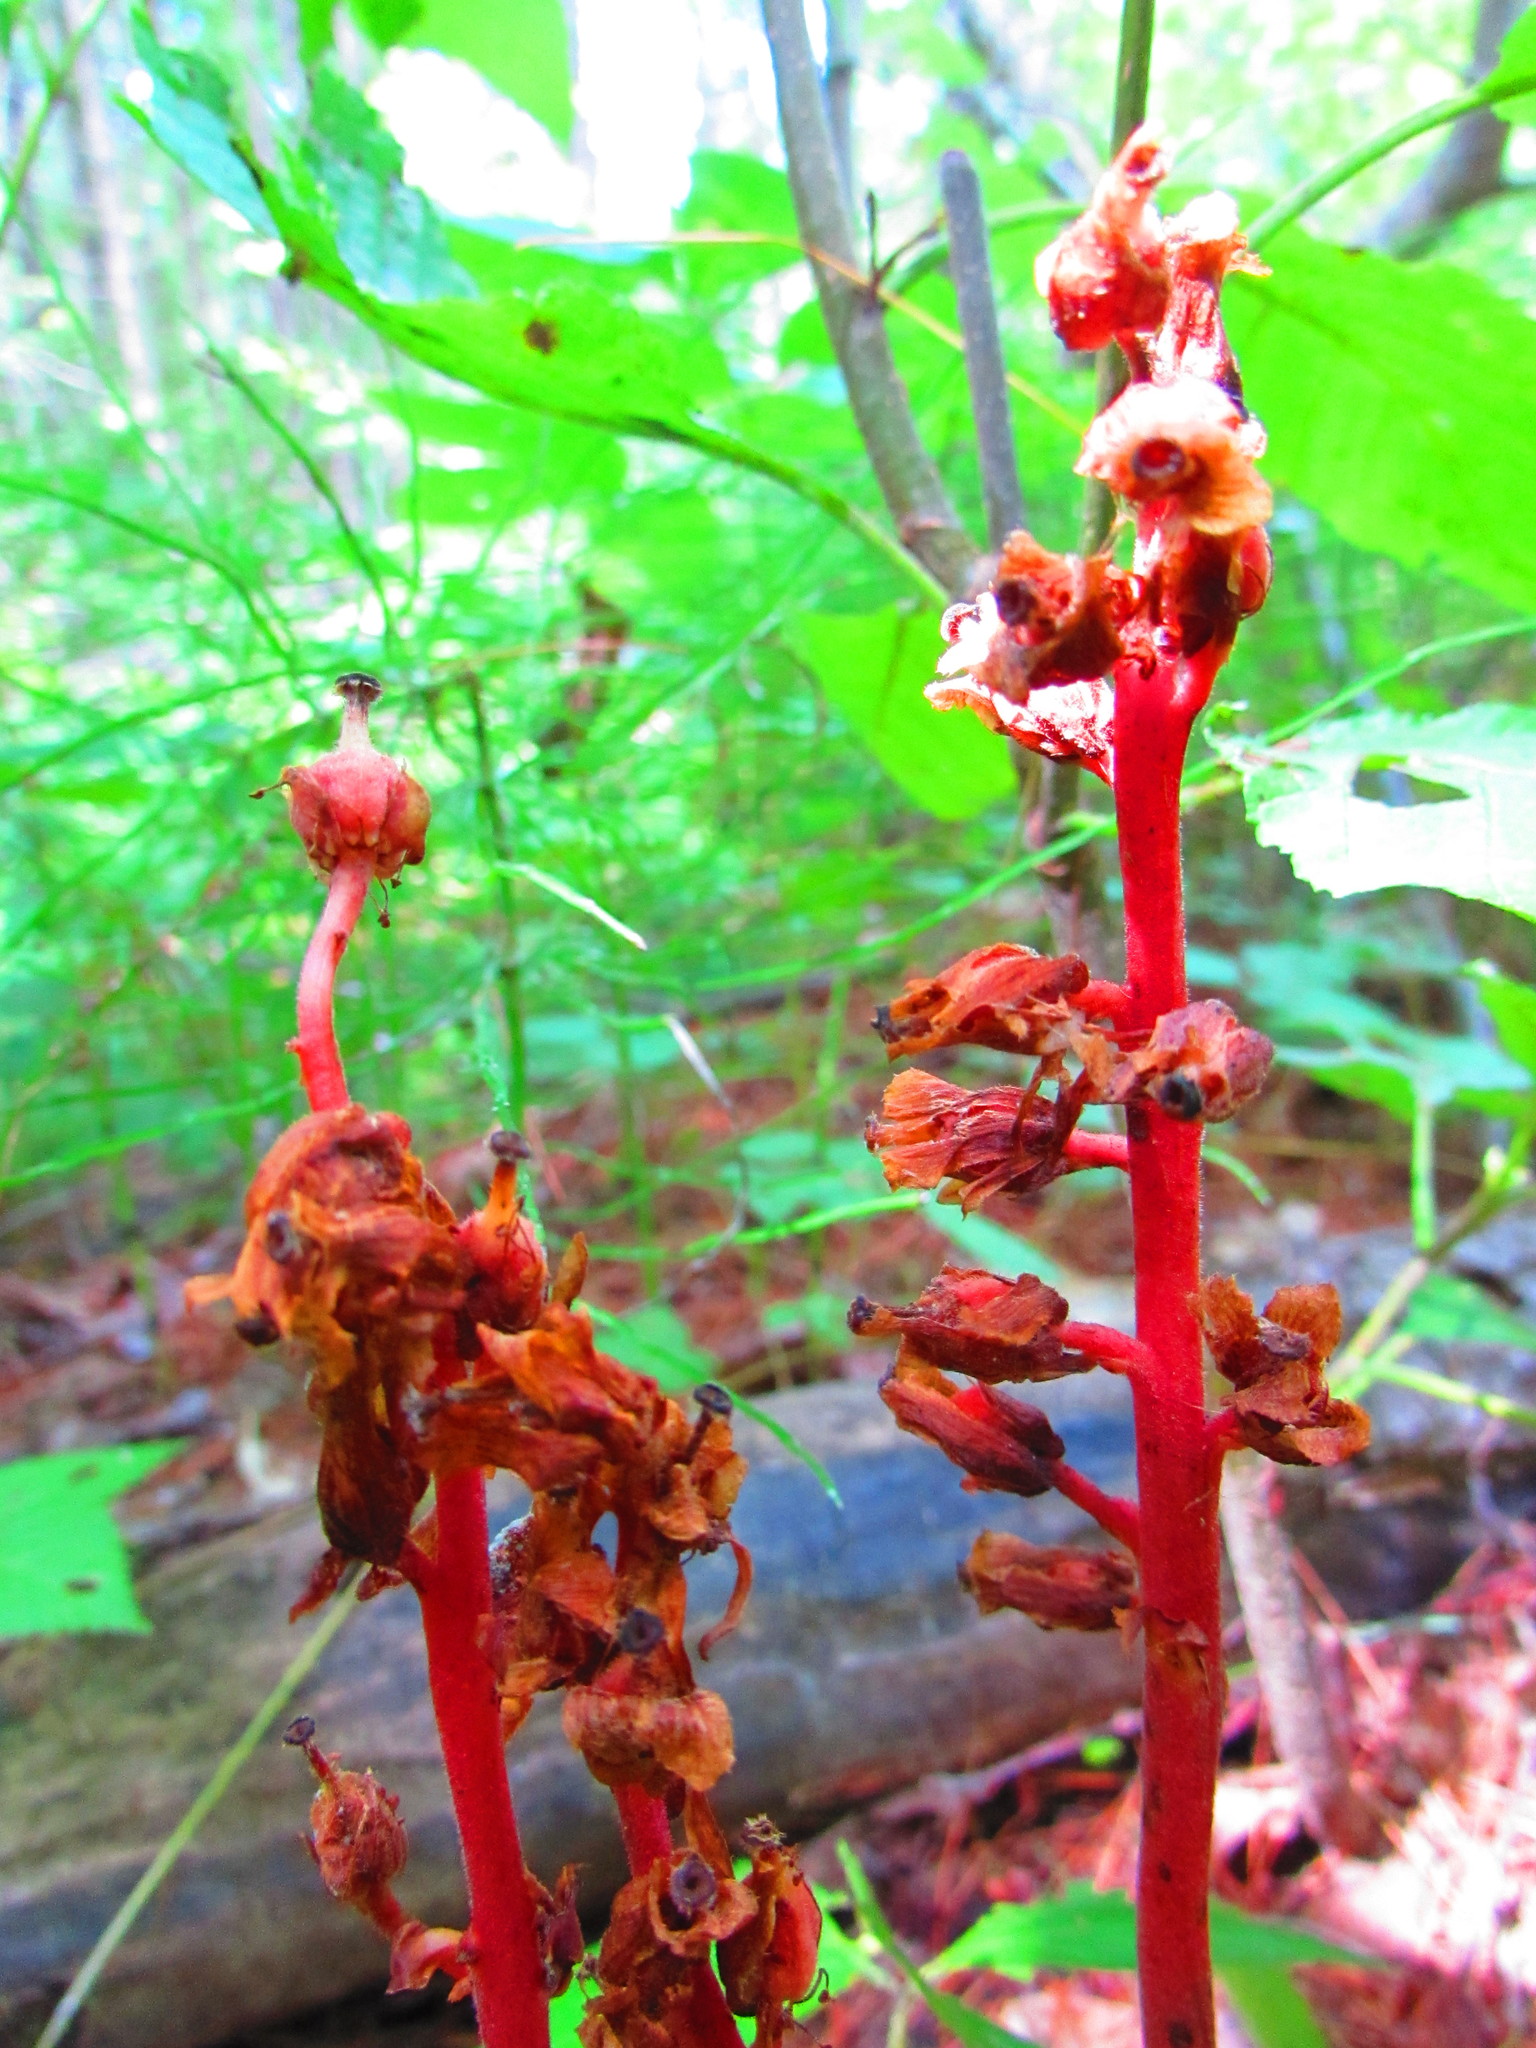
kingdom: Plantae
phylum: Tracheophyta
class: Magnoliopsida
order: Ericales
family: Ericaceae
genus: Hypopitys
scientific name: Hypopitys monotropa
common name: Yellow bird's-nest
